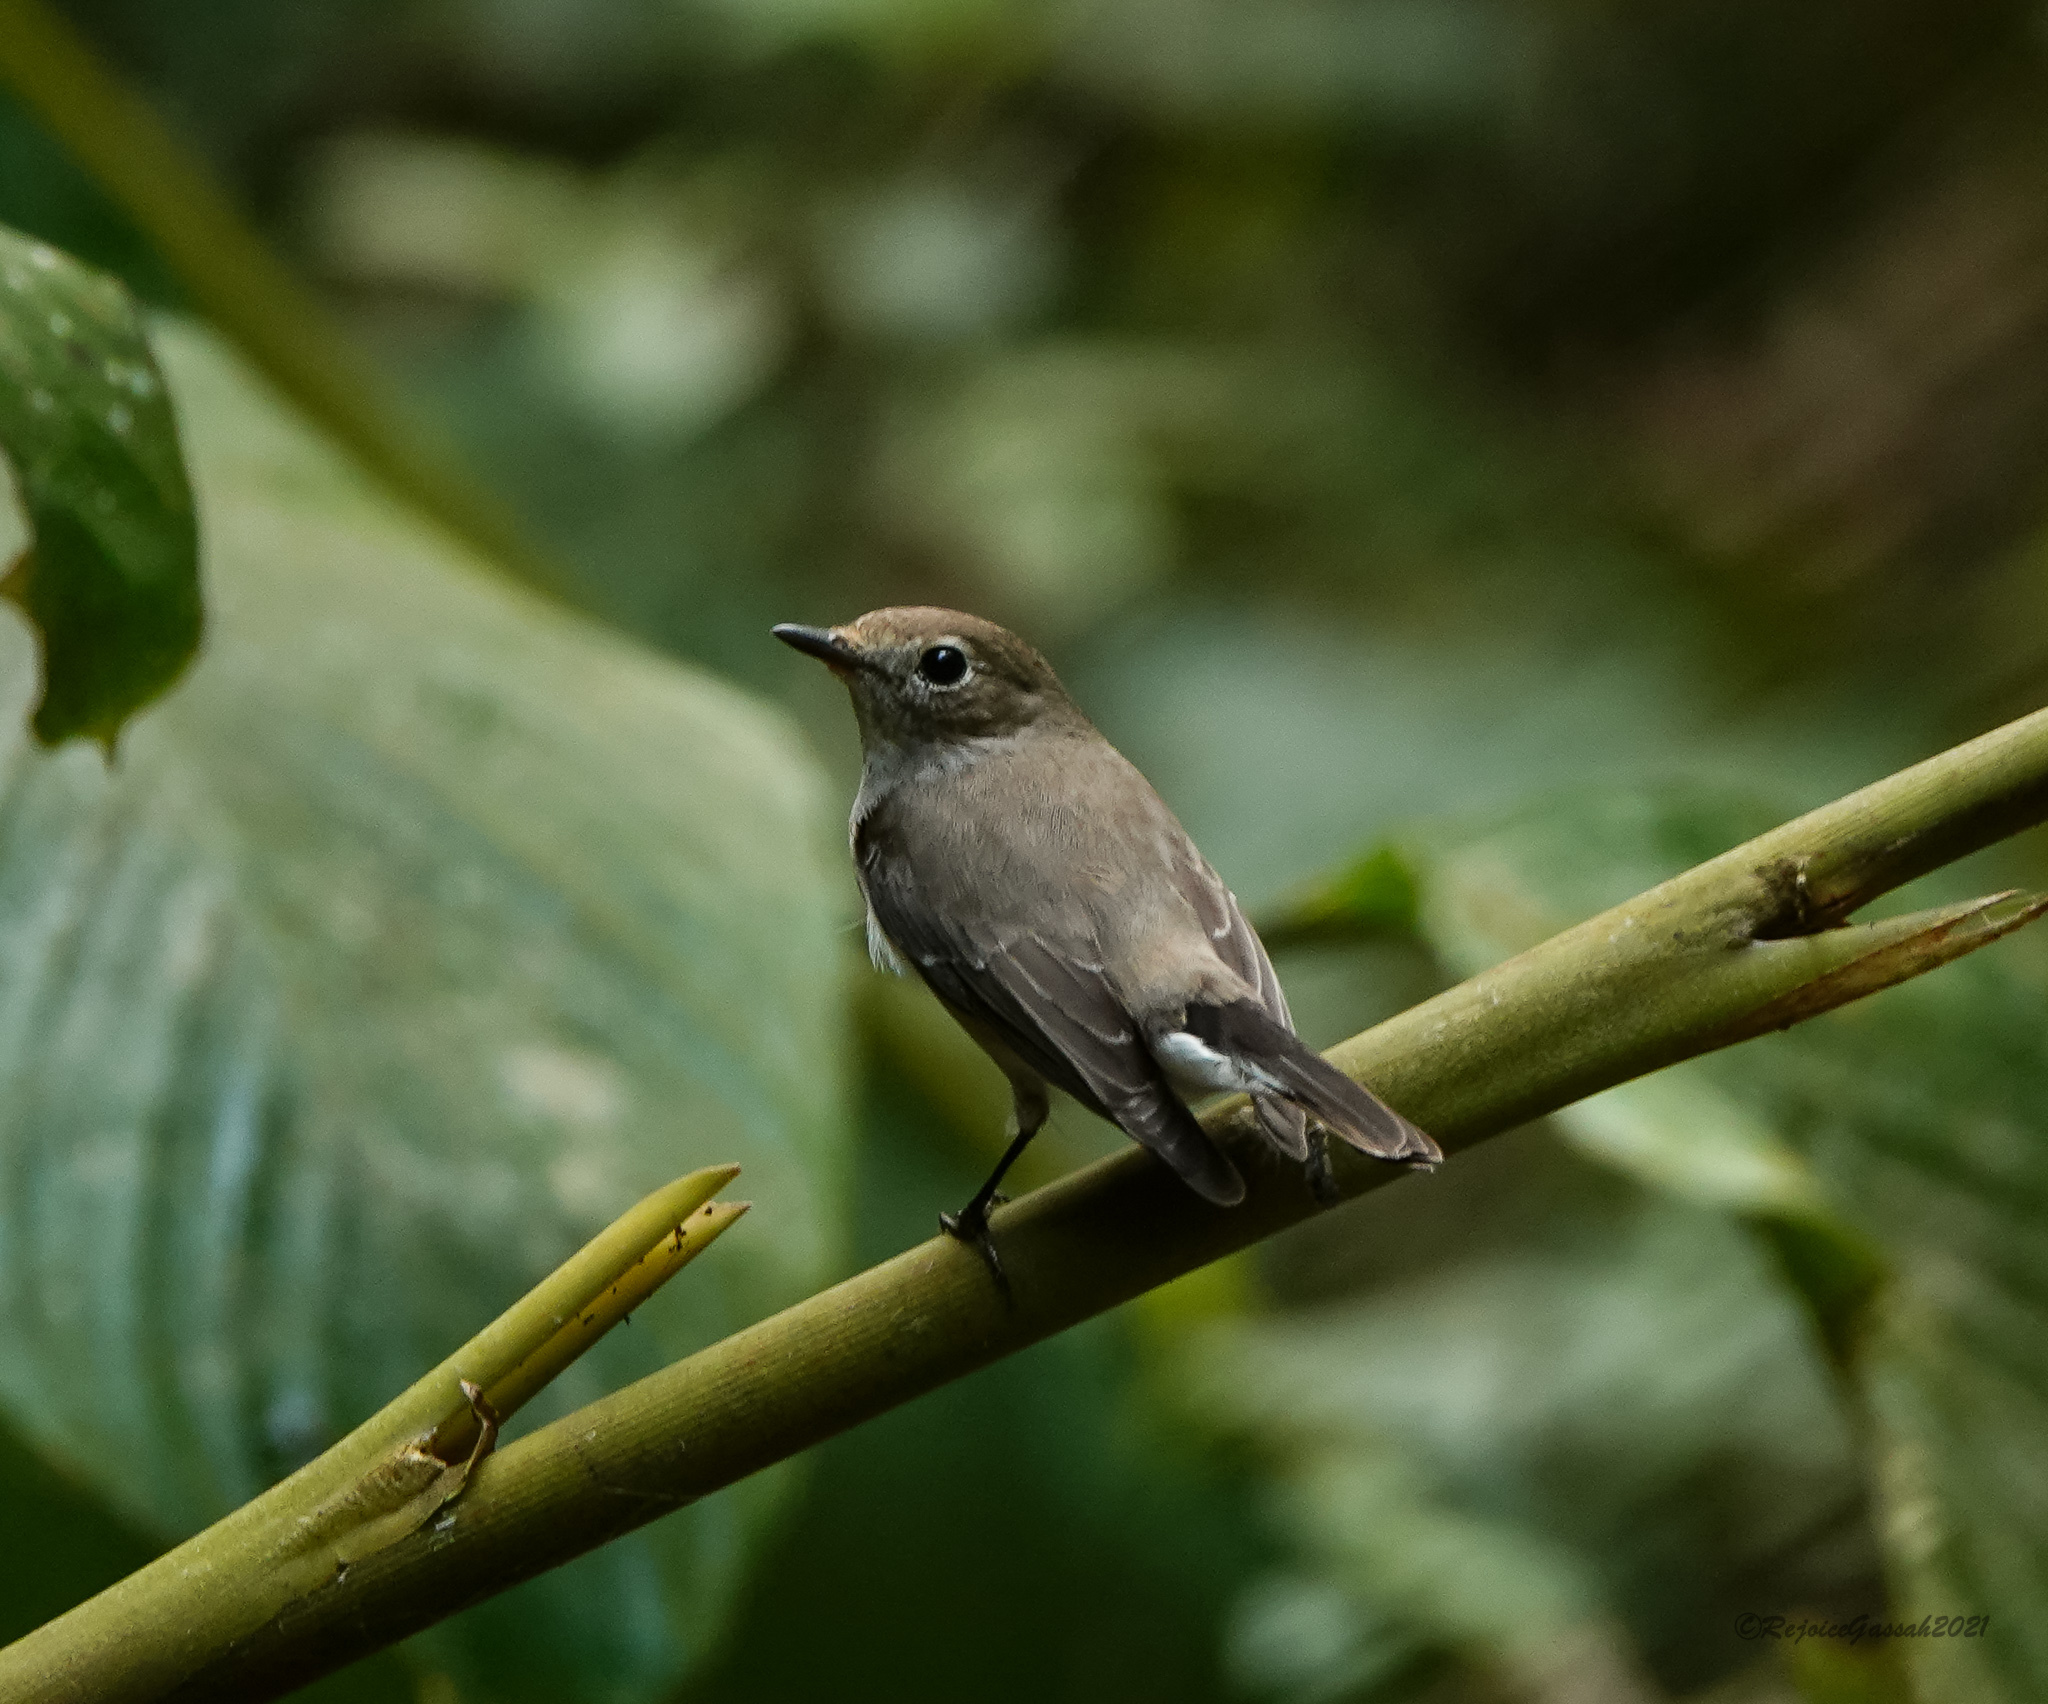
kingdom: Animalia
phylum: Chordata
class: Aves
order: Passeriformes
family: Muscicapidae
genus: Ficedula
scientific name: Ficedula albicilla
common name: Taiga flycatcher
